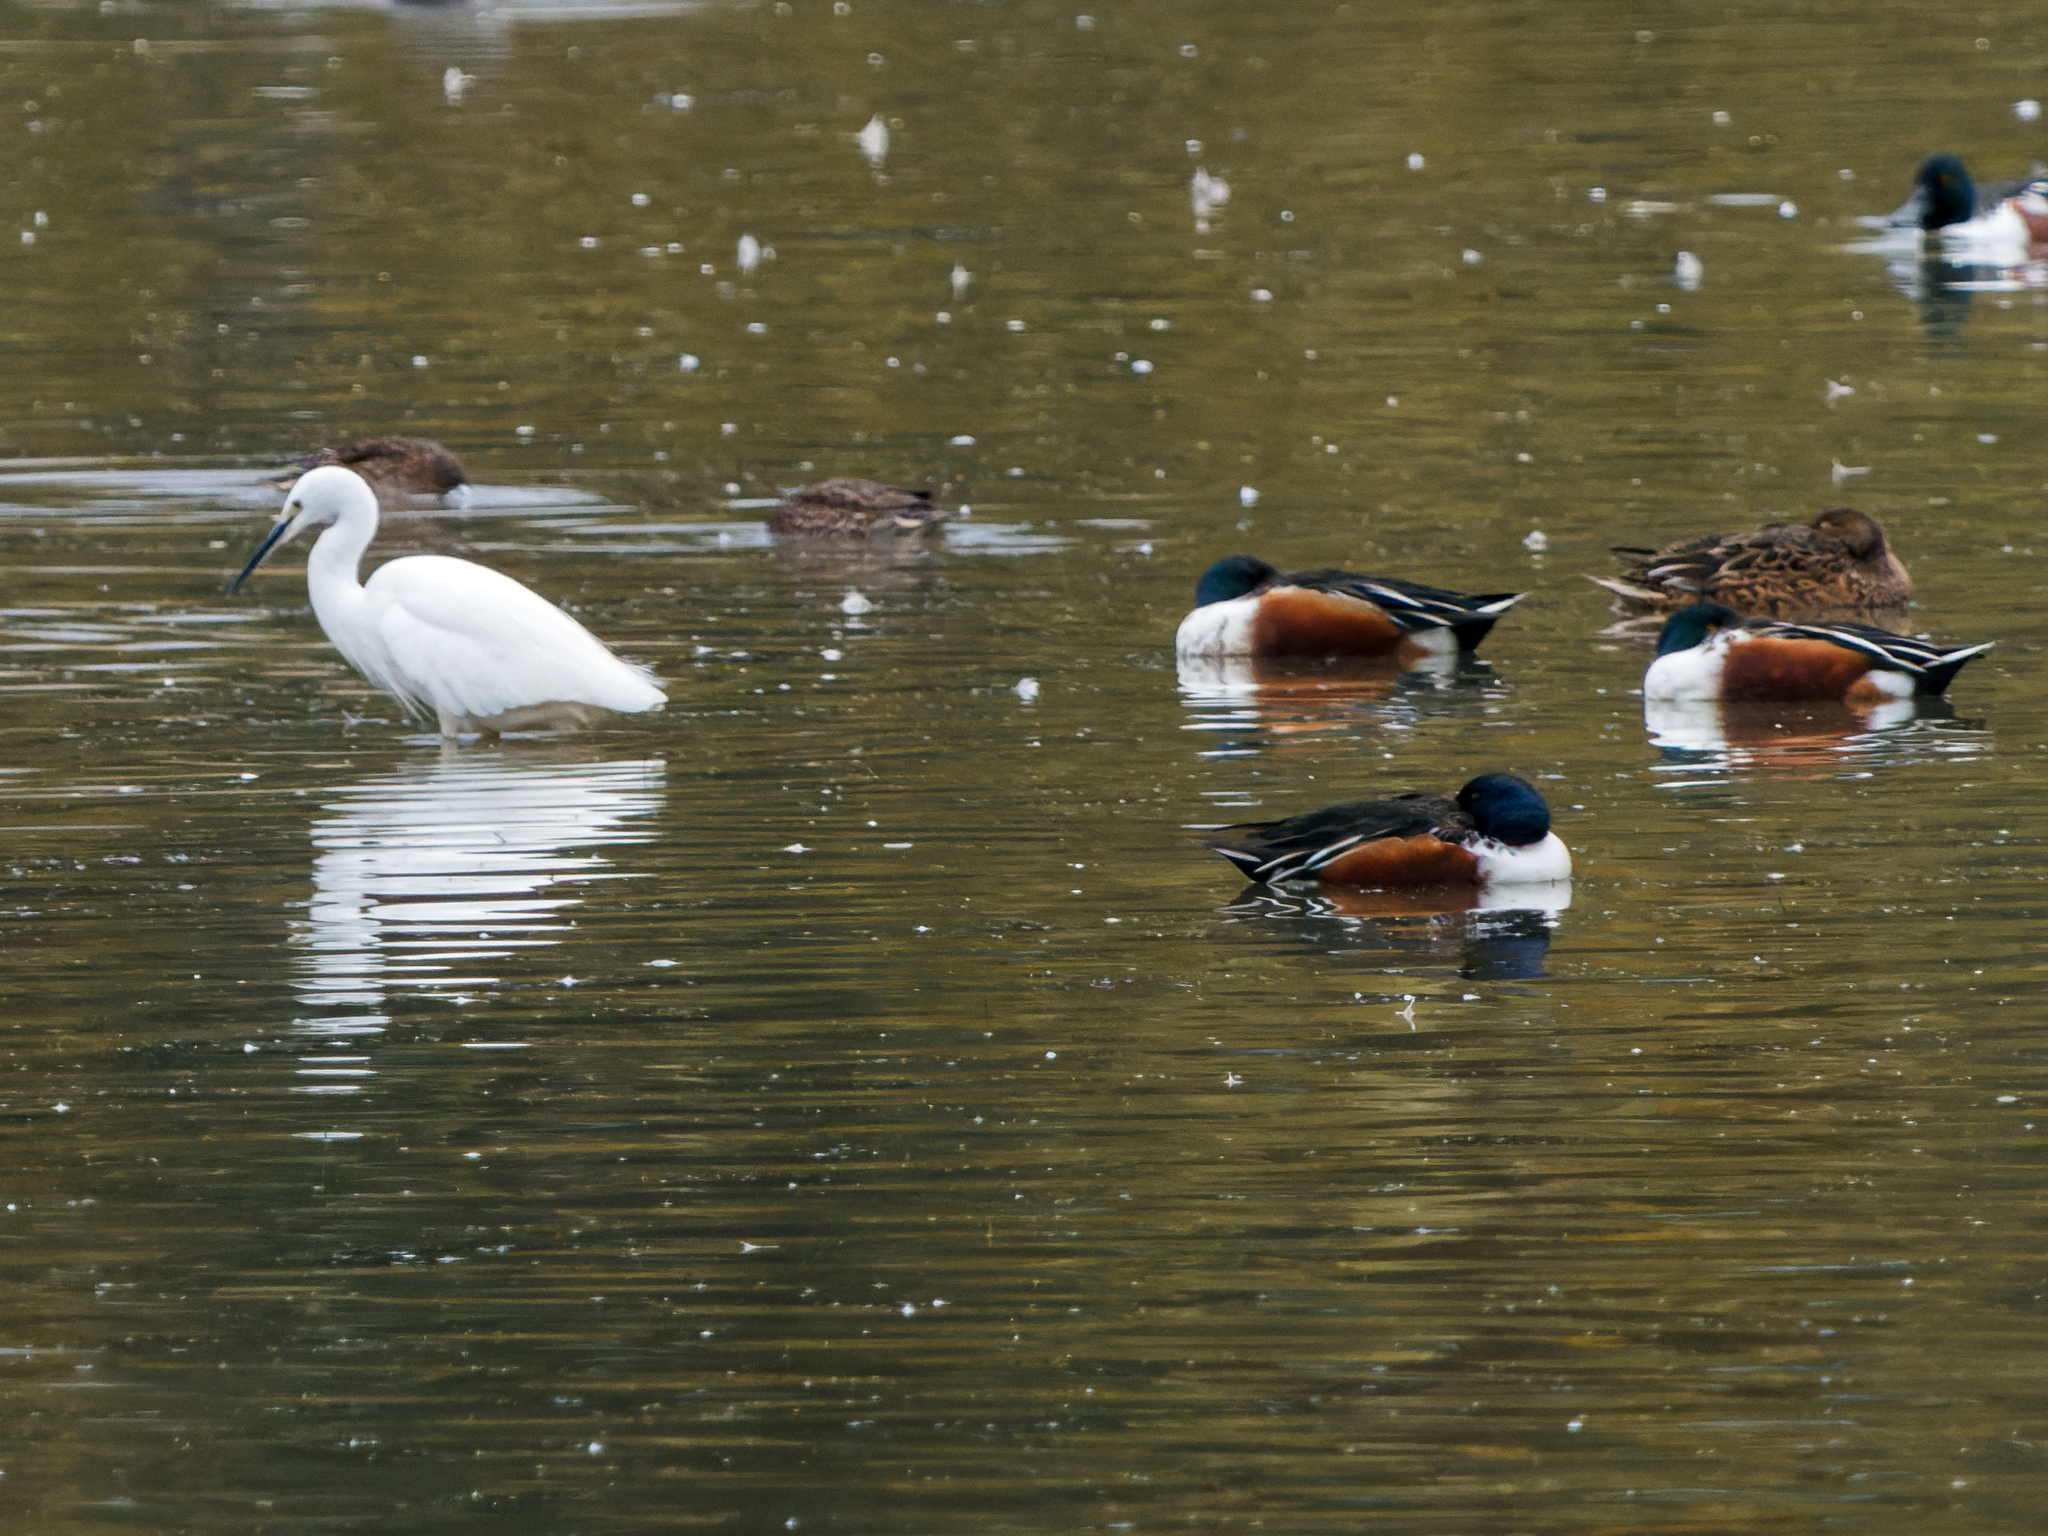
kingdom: Animalia
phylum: Chordata
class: Aves
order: Anseriformes
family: Anatidae
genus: Spatula
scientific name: Spatula clypeata
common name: Northern shoveler
